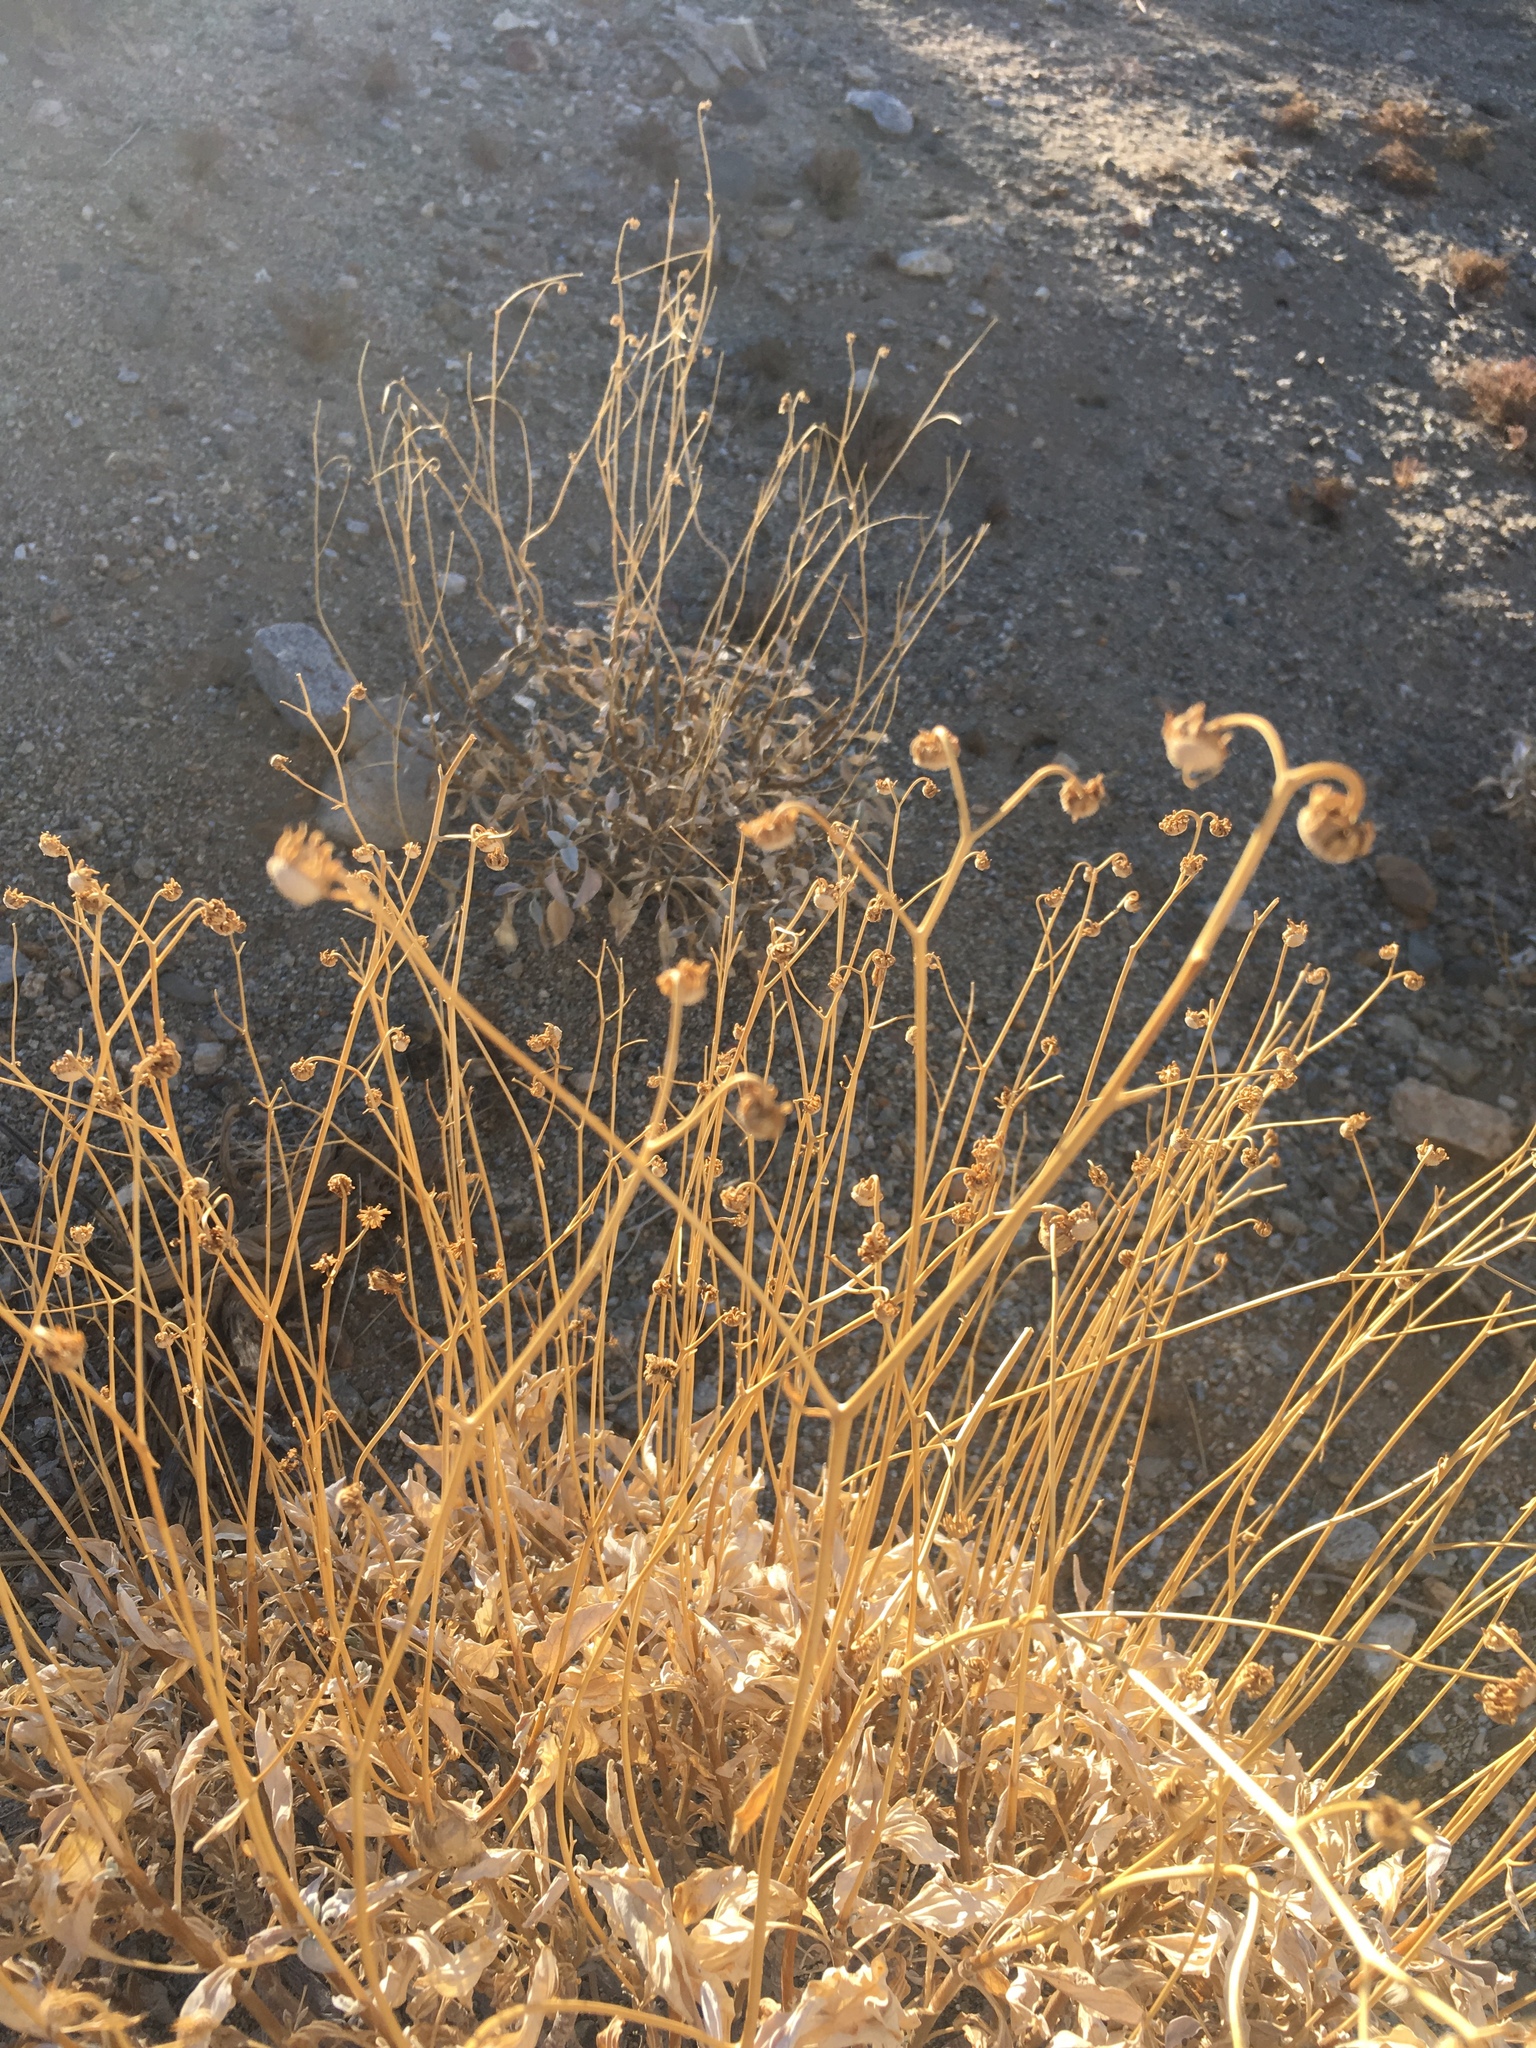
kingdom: Plantae
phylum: Tracheophyta
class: Magnoliopsida
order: Asterales
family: Asteraceae
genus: Encelia
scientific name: Encelia farinosa
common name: Brittlebush
